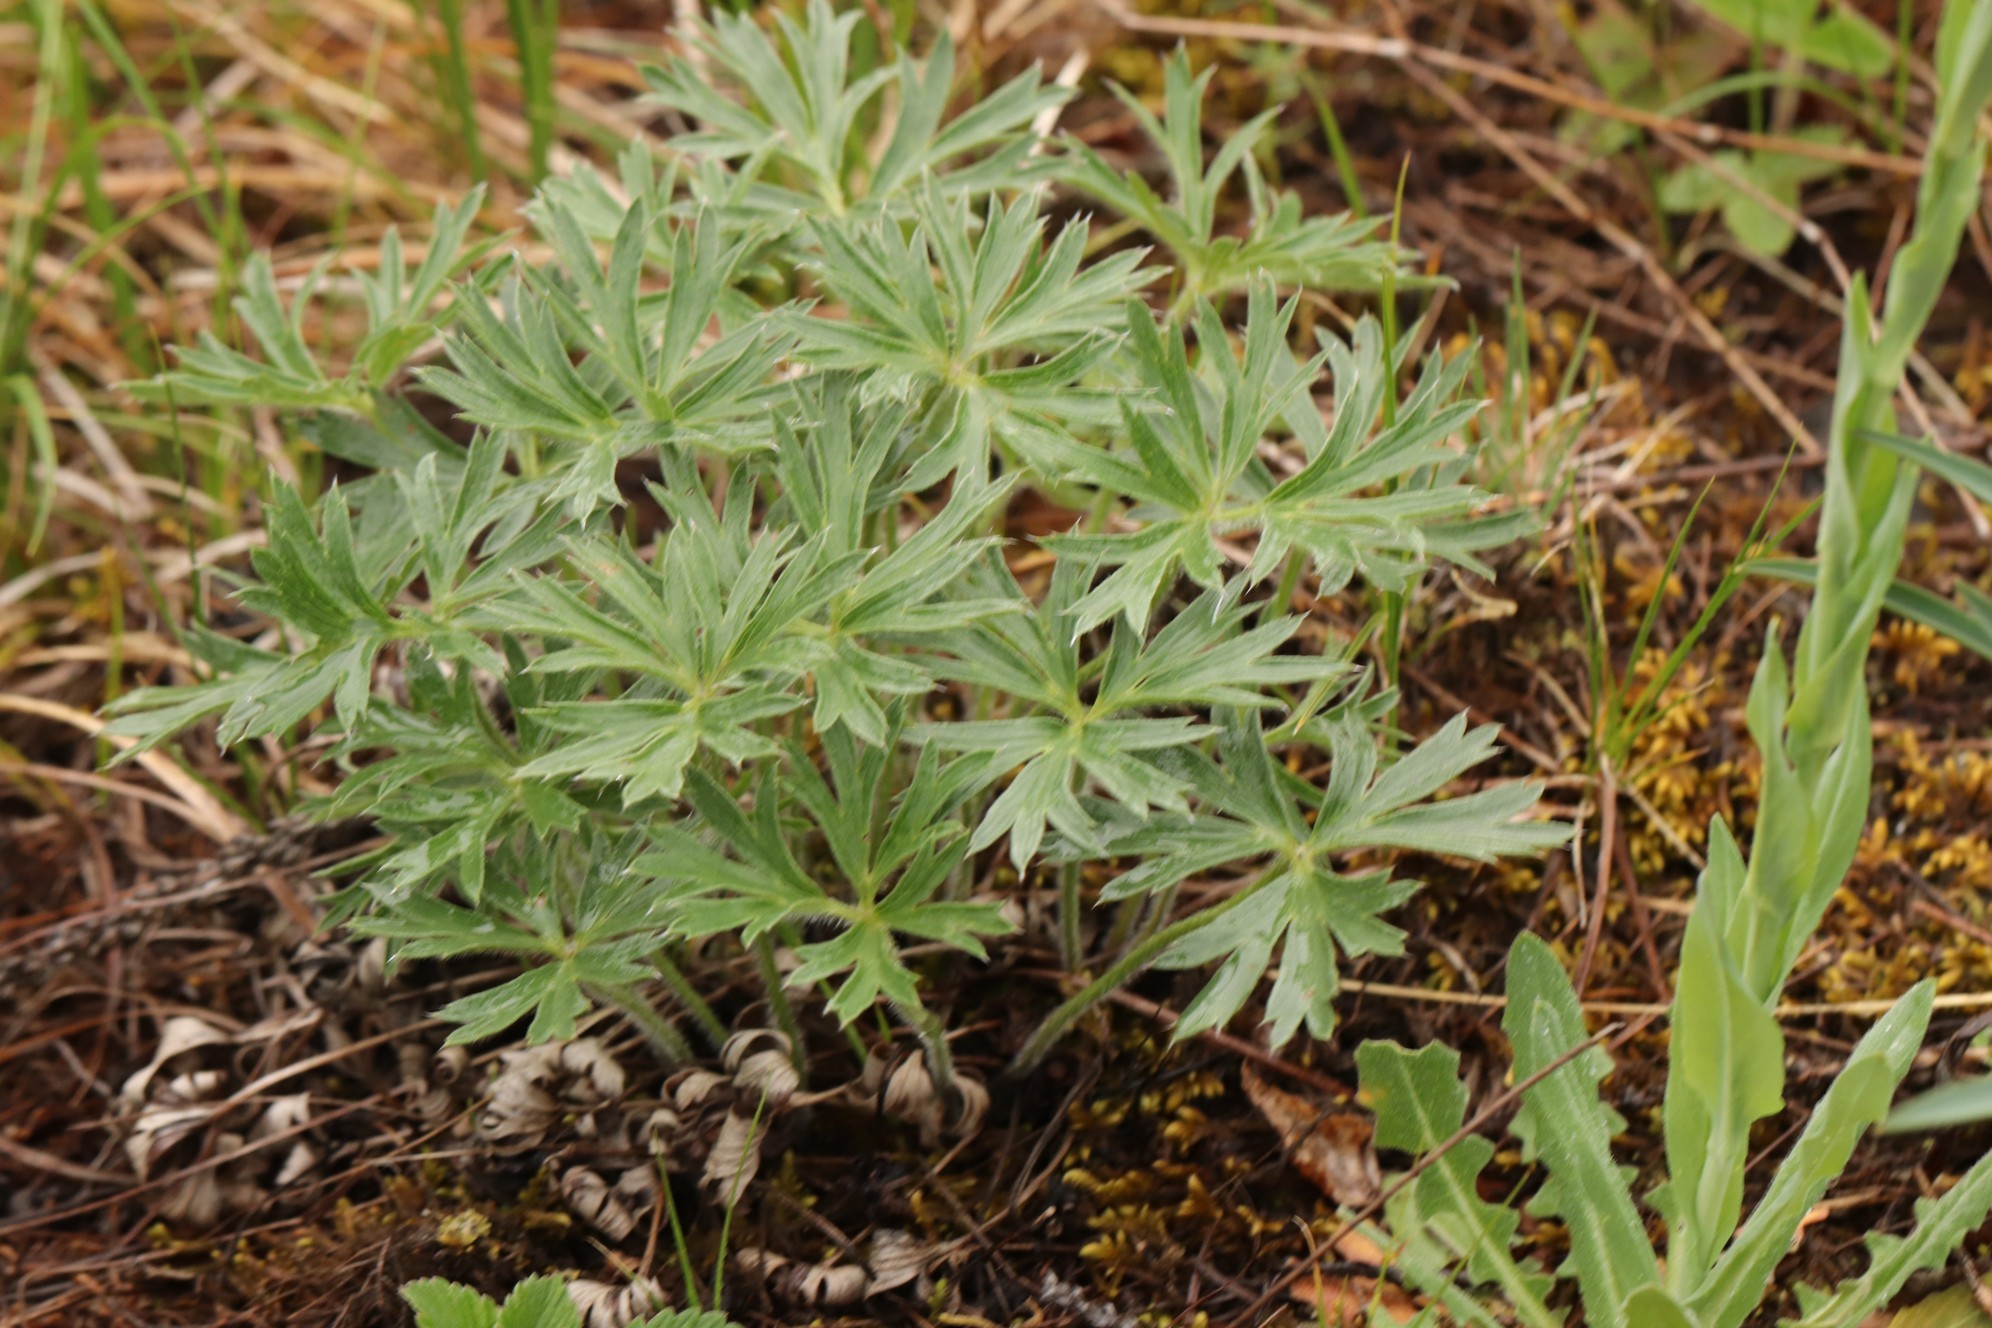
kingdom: Plantae
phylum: Tracheophyta
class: Magnoliopsida
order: Ranunculales
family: Ranunculaceae
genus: Pulsatilla
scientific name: Pulsatilla patens
